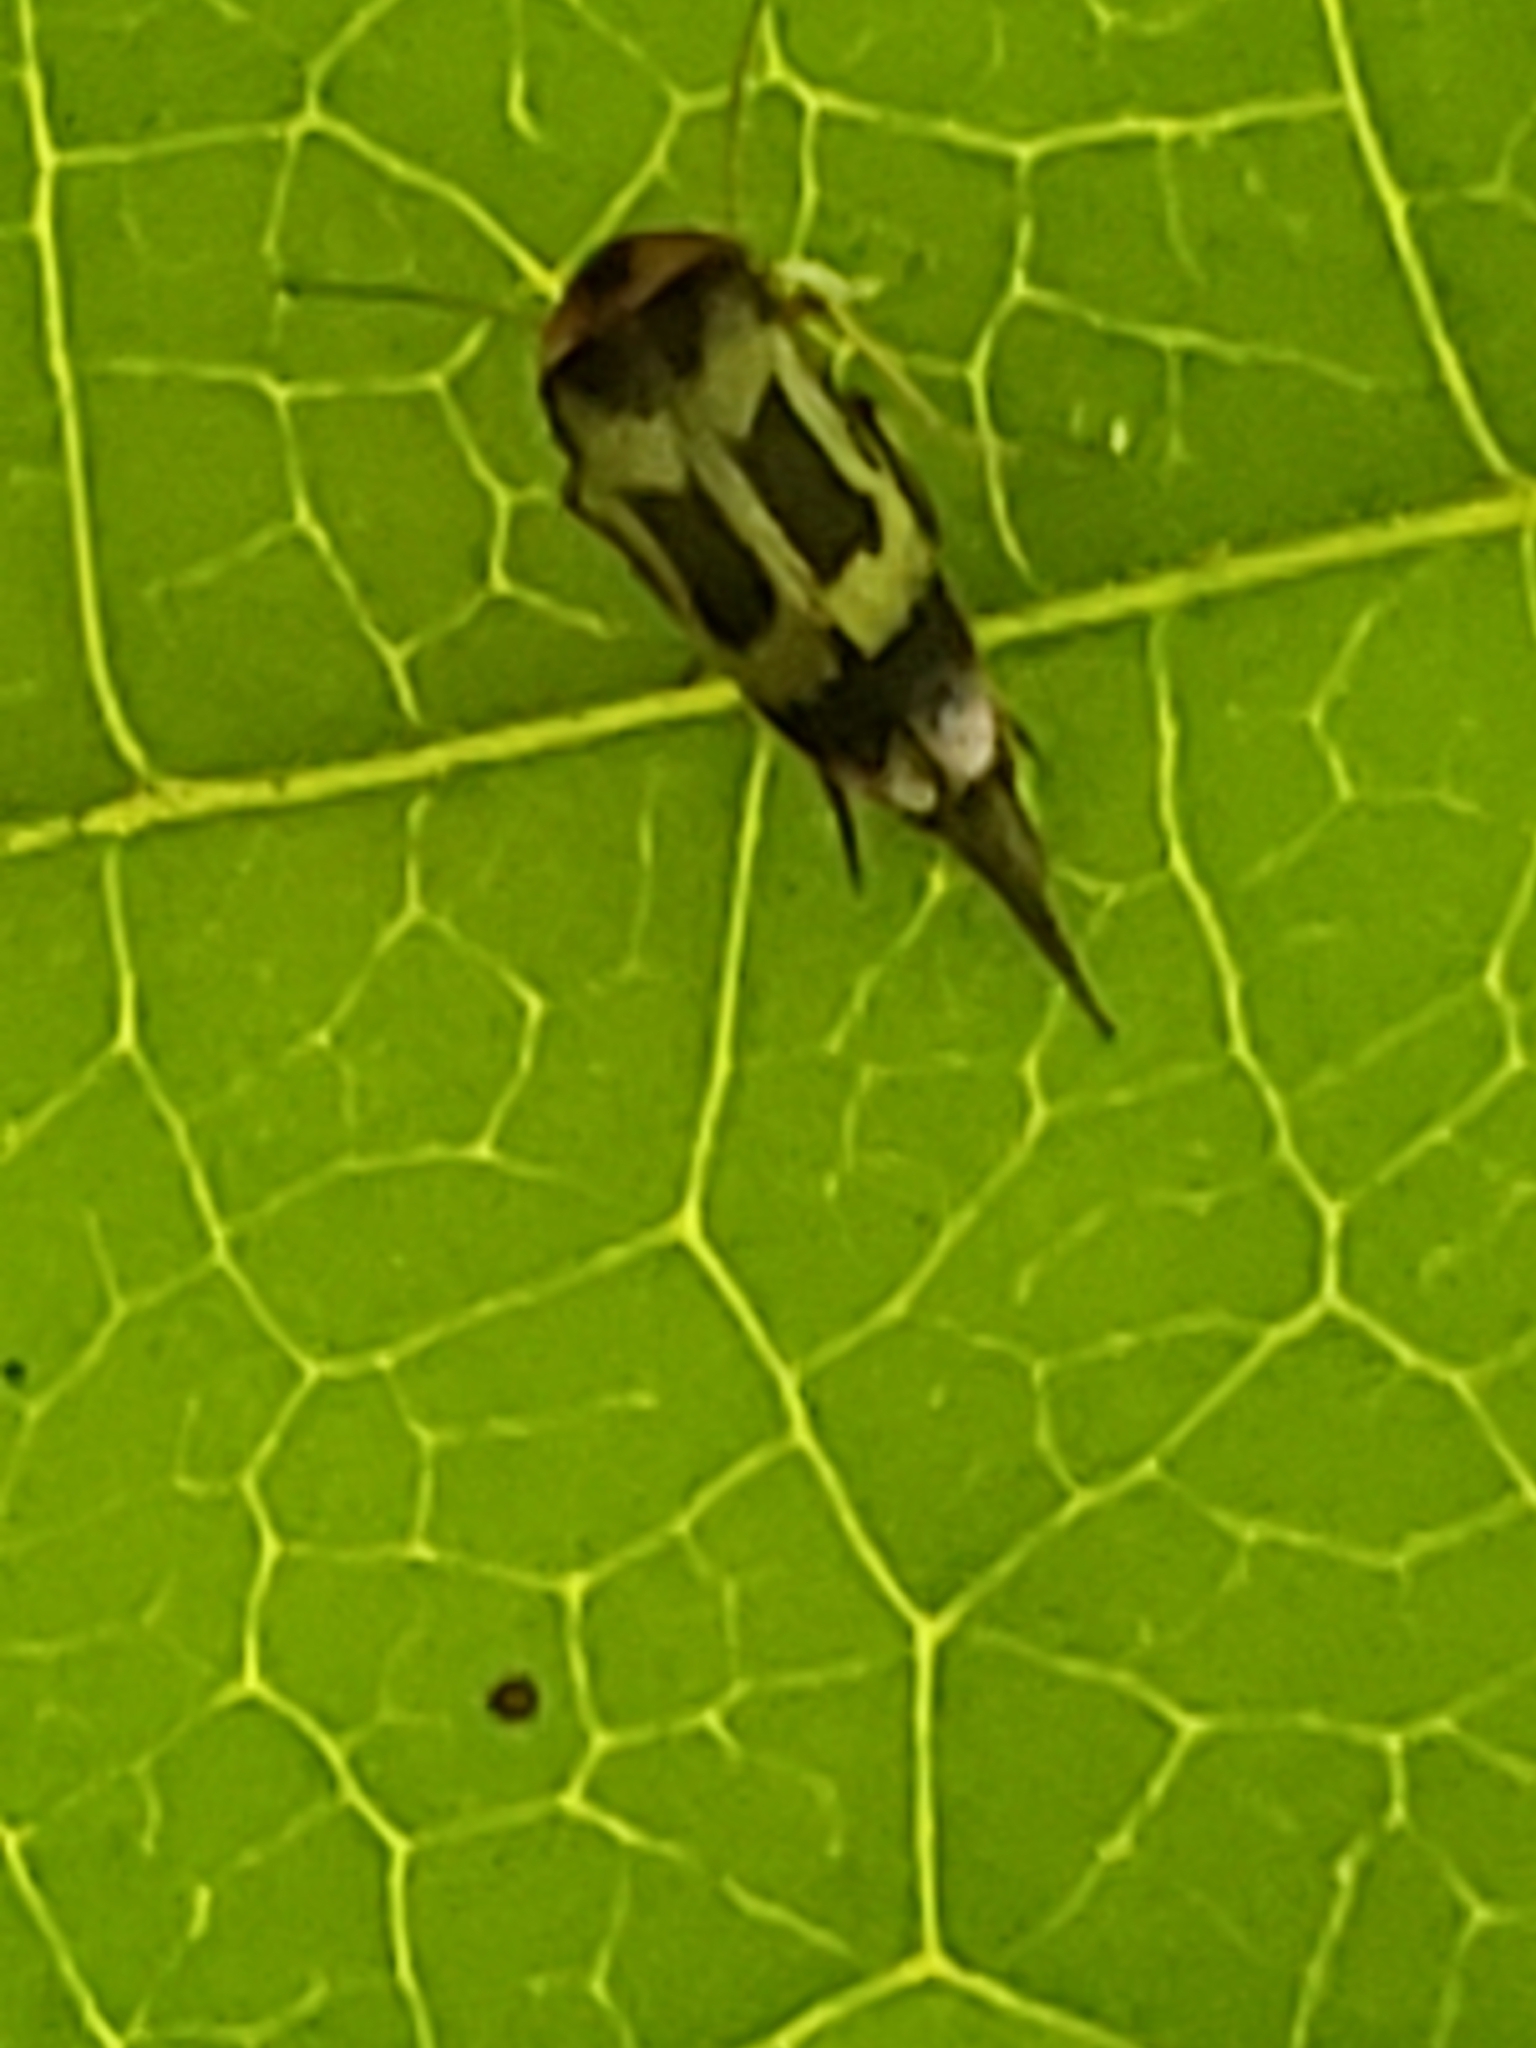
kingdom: Animalia
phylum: Arthropoda
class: Insecta
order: Coleoptera
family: Mordellidae
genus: Falsomordellistena
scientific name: Falsomordellistena hebraica
